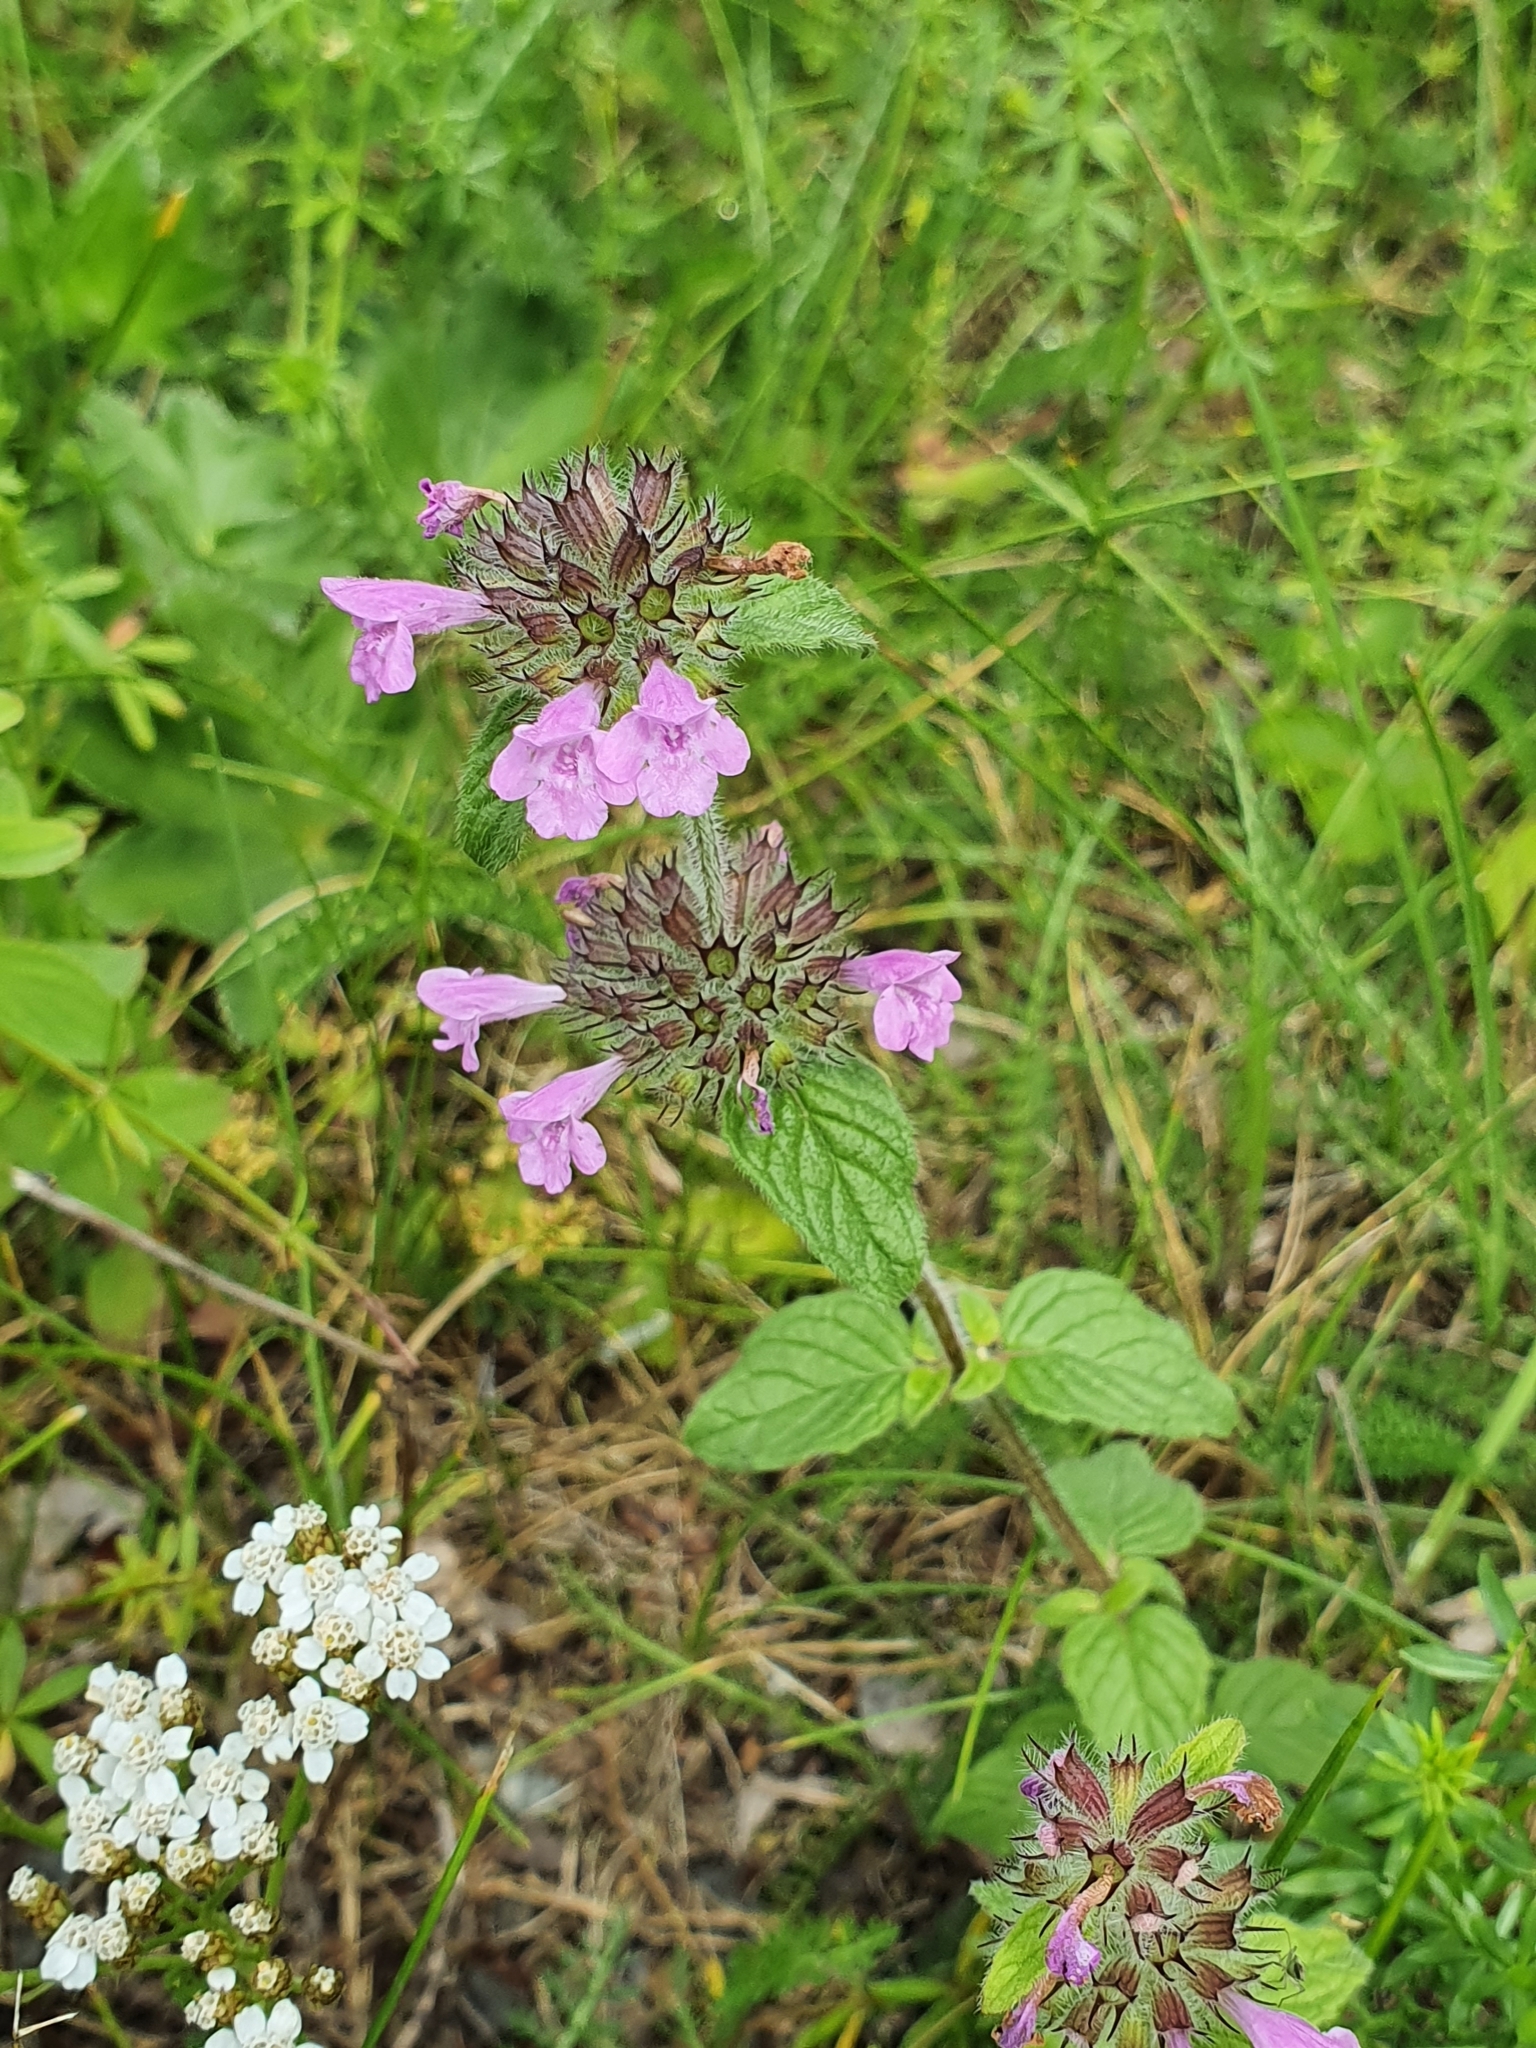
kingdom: Plantae
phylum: Tracheophyta
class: Magnoliopsida
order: Lamiales
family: Lamiaceae
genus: Clinopodium
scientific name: Clinopodium vulgare
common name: Wild basil
